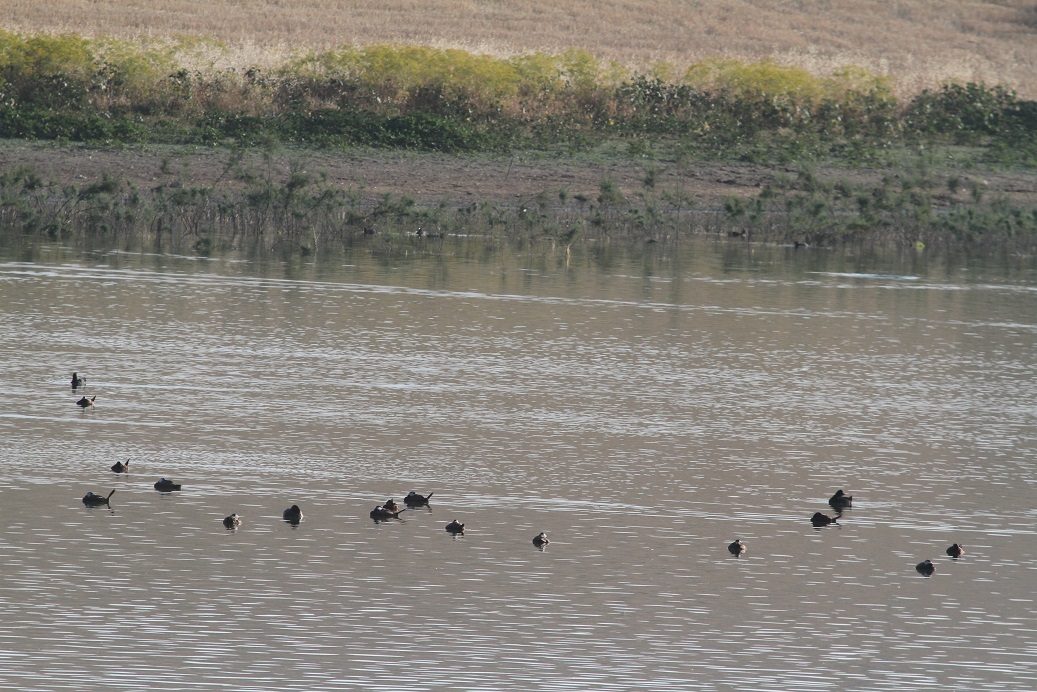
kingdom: Animalia
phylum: Chordata
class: Aves
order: Anseriformes
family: Anatidae
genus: Oxyura
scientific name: Oxyura leucocephala
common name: White-headed duck
